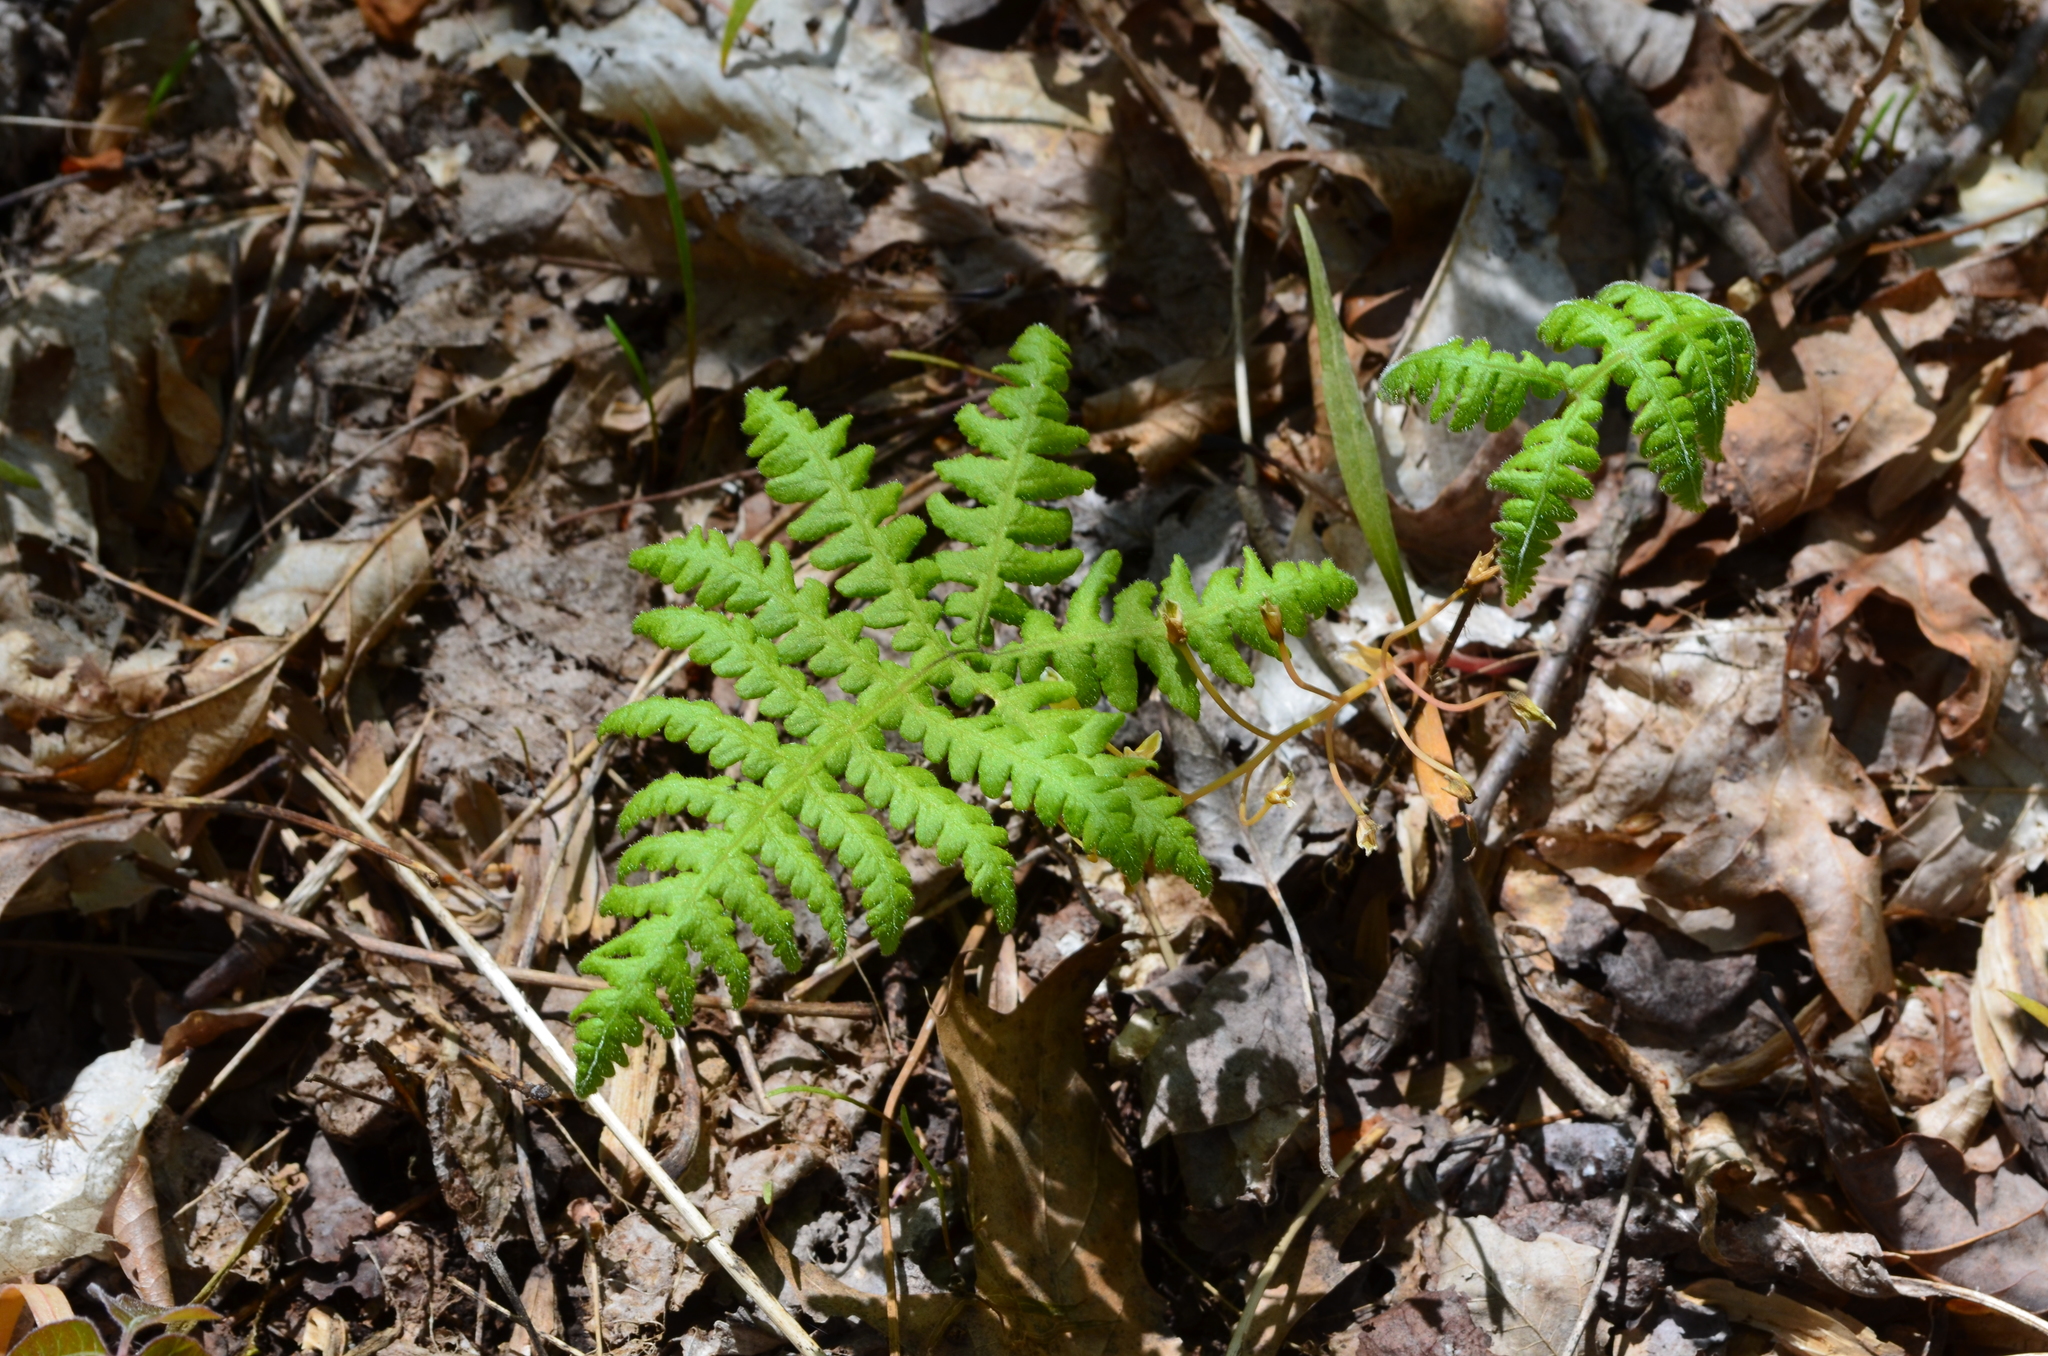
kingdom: Plantae
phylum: Tracheophyta
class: Polypodiopsida
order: Polypodiales
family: Thelypteridaceae
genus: Phegopteris
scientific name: Phegopteris hexagonoptera
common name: Broad beech fern
